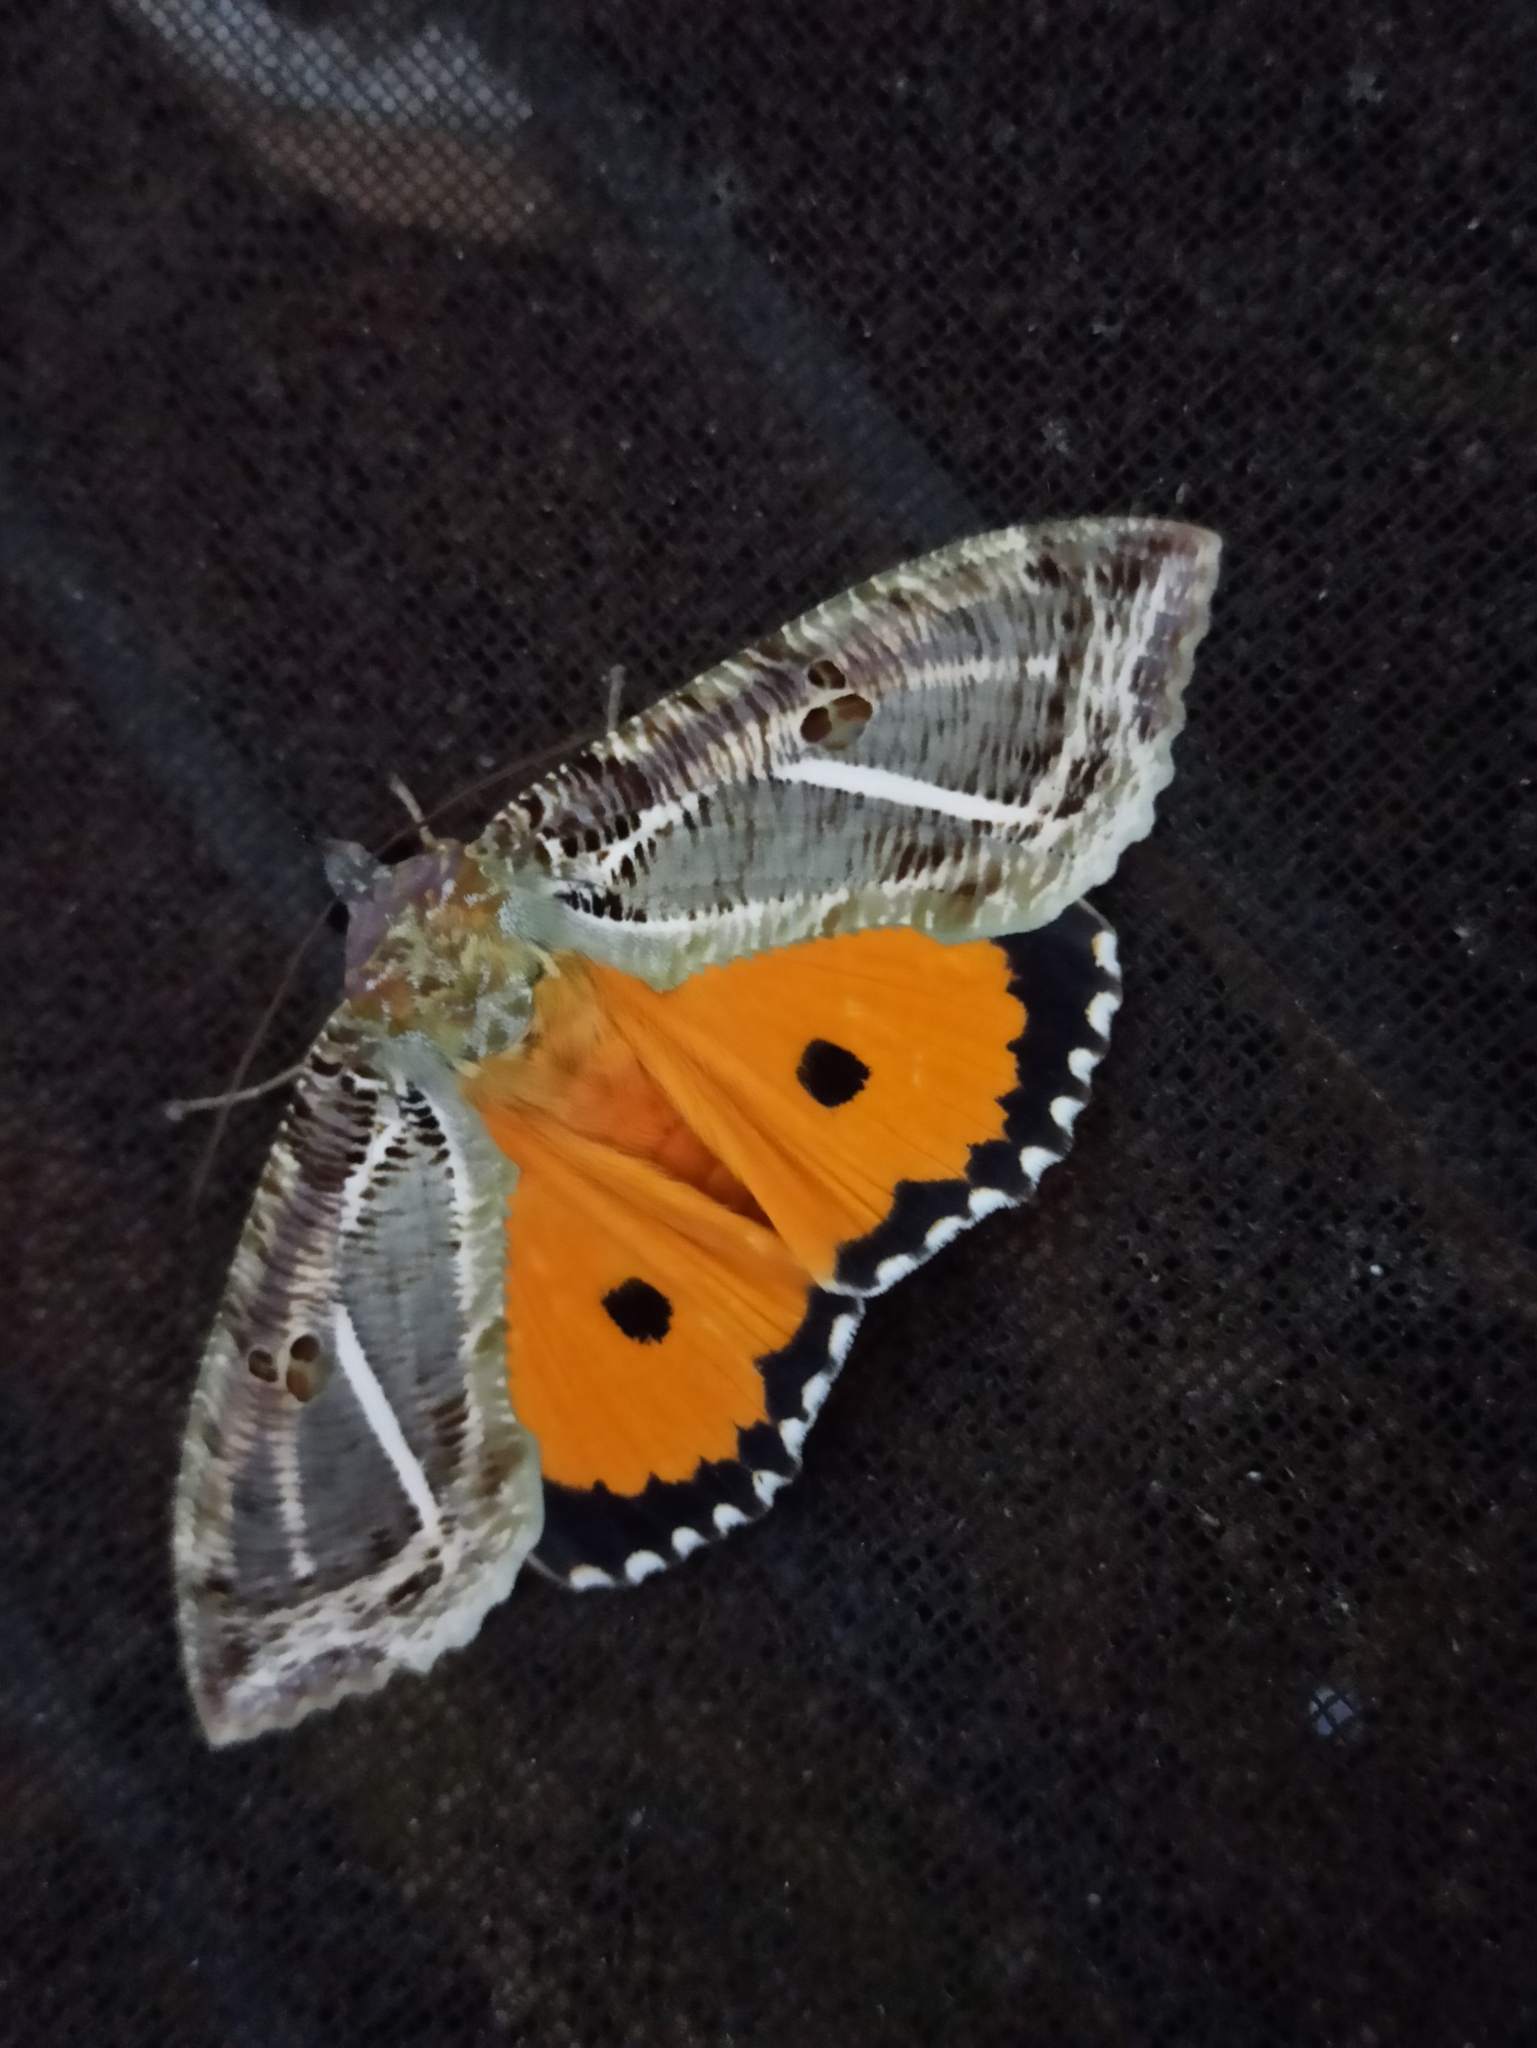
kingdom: Animalia
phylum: Arthropoda
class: Insecta
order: Lepidoptera
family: Erebidae
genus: Eudocima
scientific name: Eudocima materna
